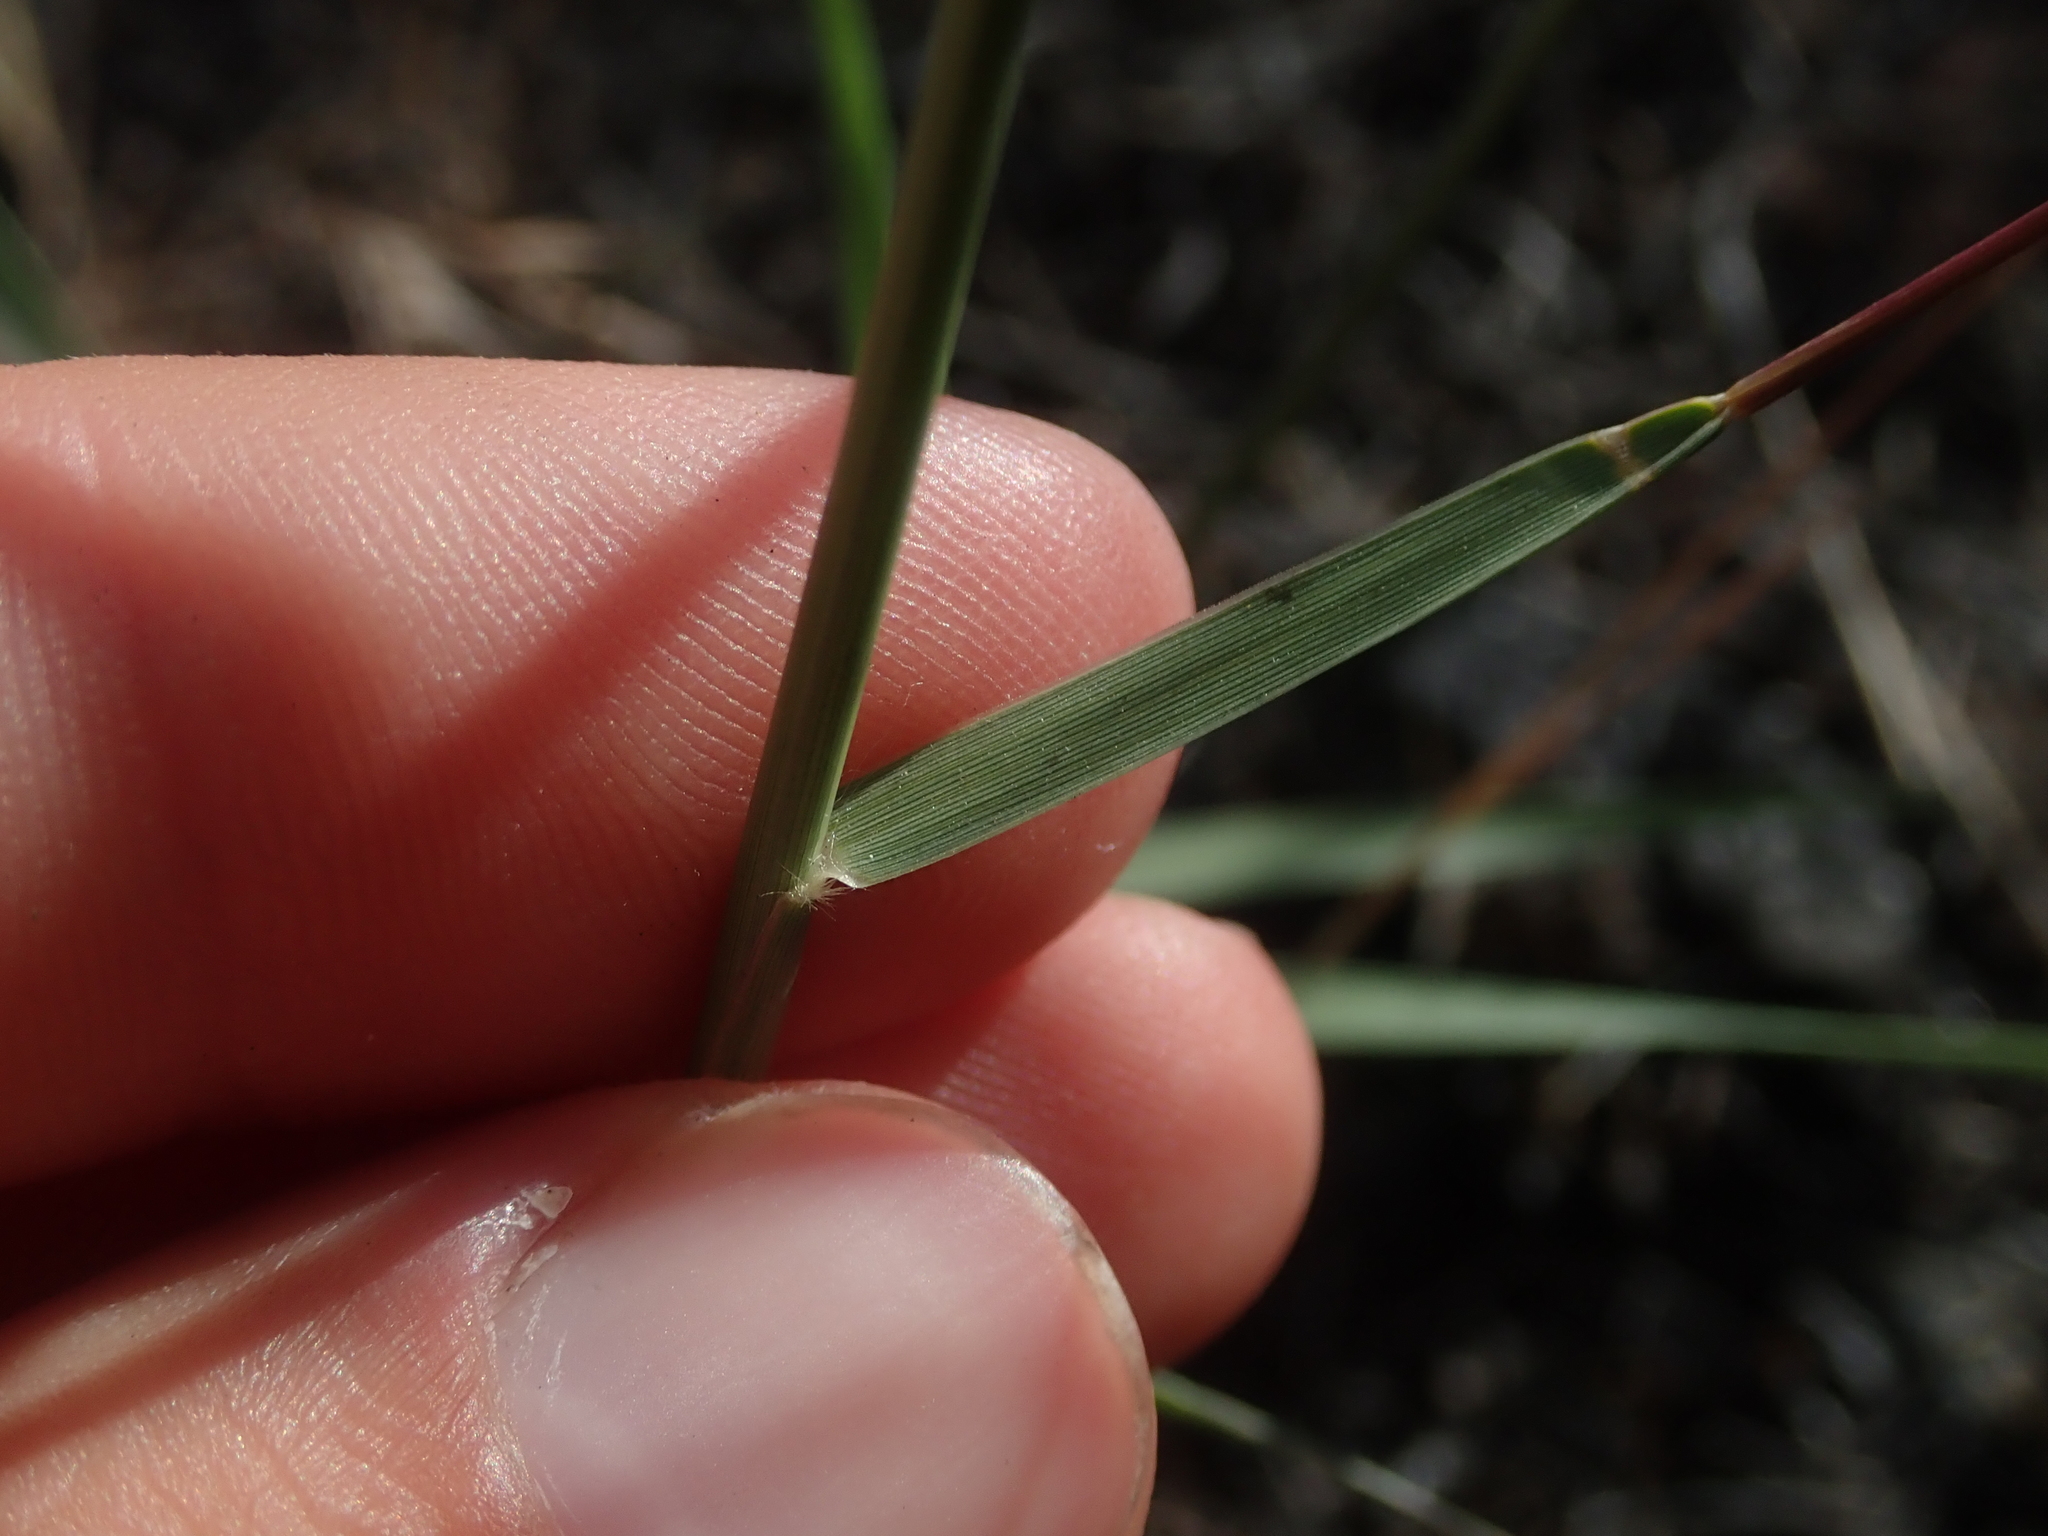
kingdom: Plantae
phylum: Tracheophyta
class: Liliopsida
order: Poales
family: Poaceae
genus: Sporobolus
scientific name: Sporobolus cryptandrus
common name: Sand dropseed
